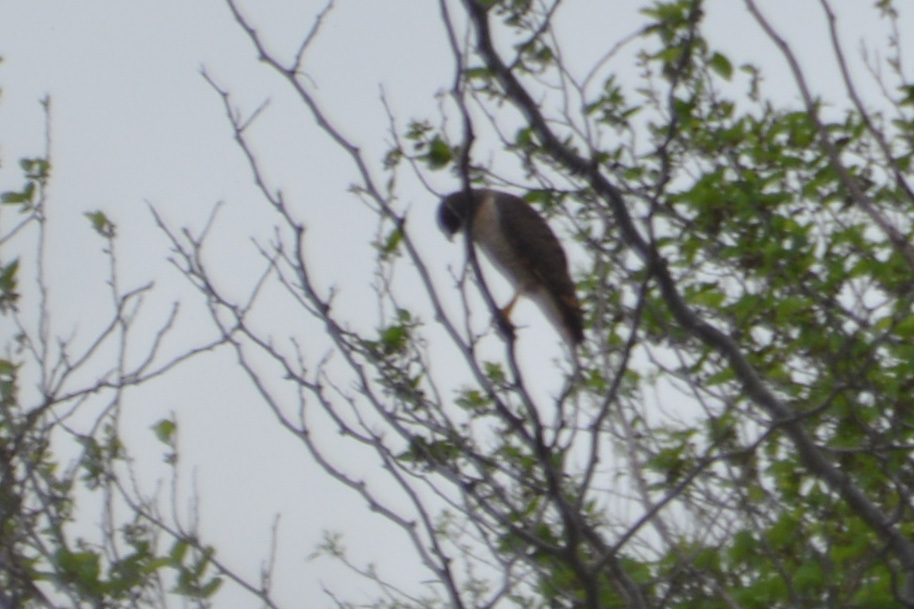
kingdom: Animalia
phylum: Chordata
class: Aves
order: Accipitriformes
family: Accipitridae
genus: Rupornis
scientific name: Rupornis magnirostris
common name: Roadside hawk
